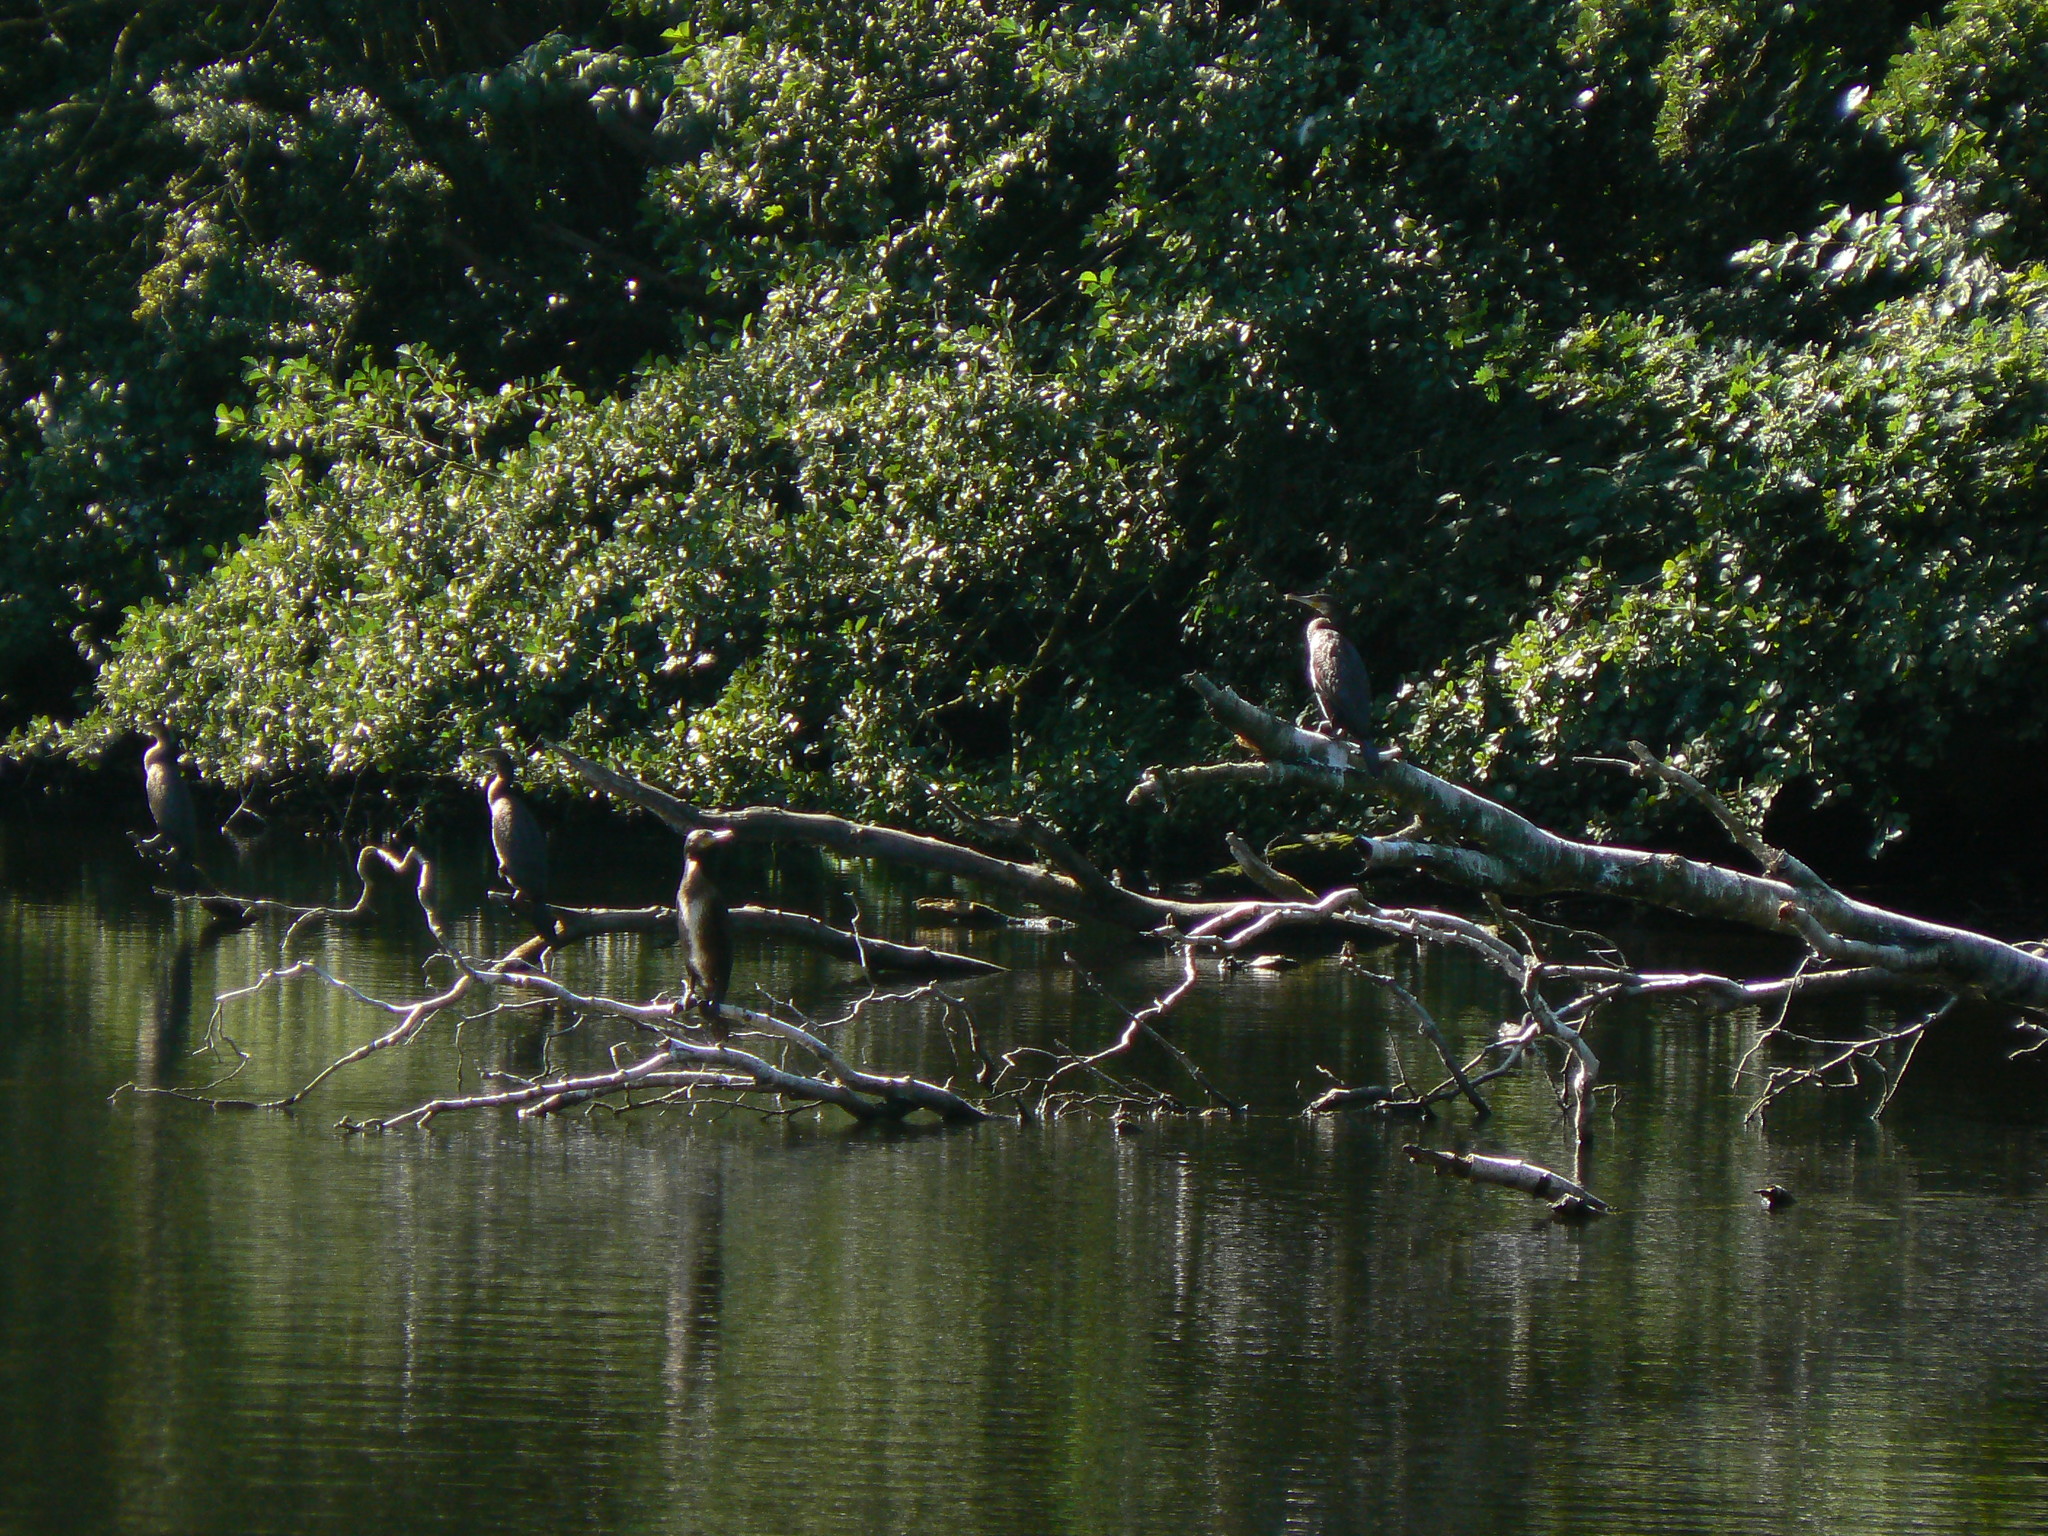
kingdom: Animalia
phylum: Chordata
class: Aves
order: Suliformes
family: Phalacrocoracidae
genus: Phalacrocorax
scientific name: Phalacrocorax carbo
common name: Great cormorant
